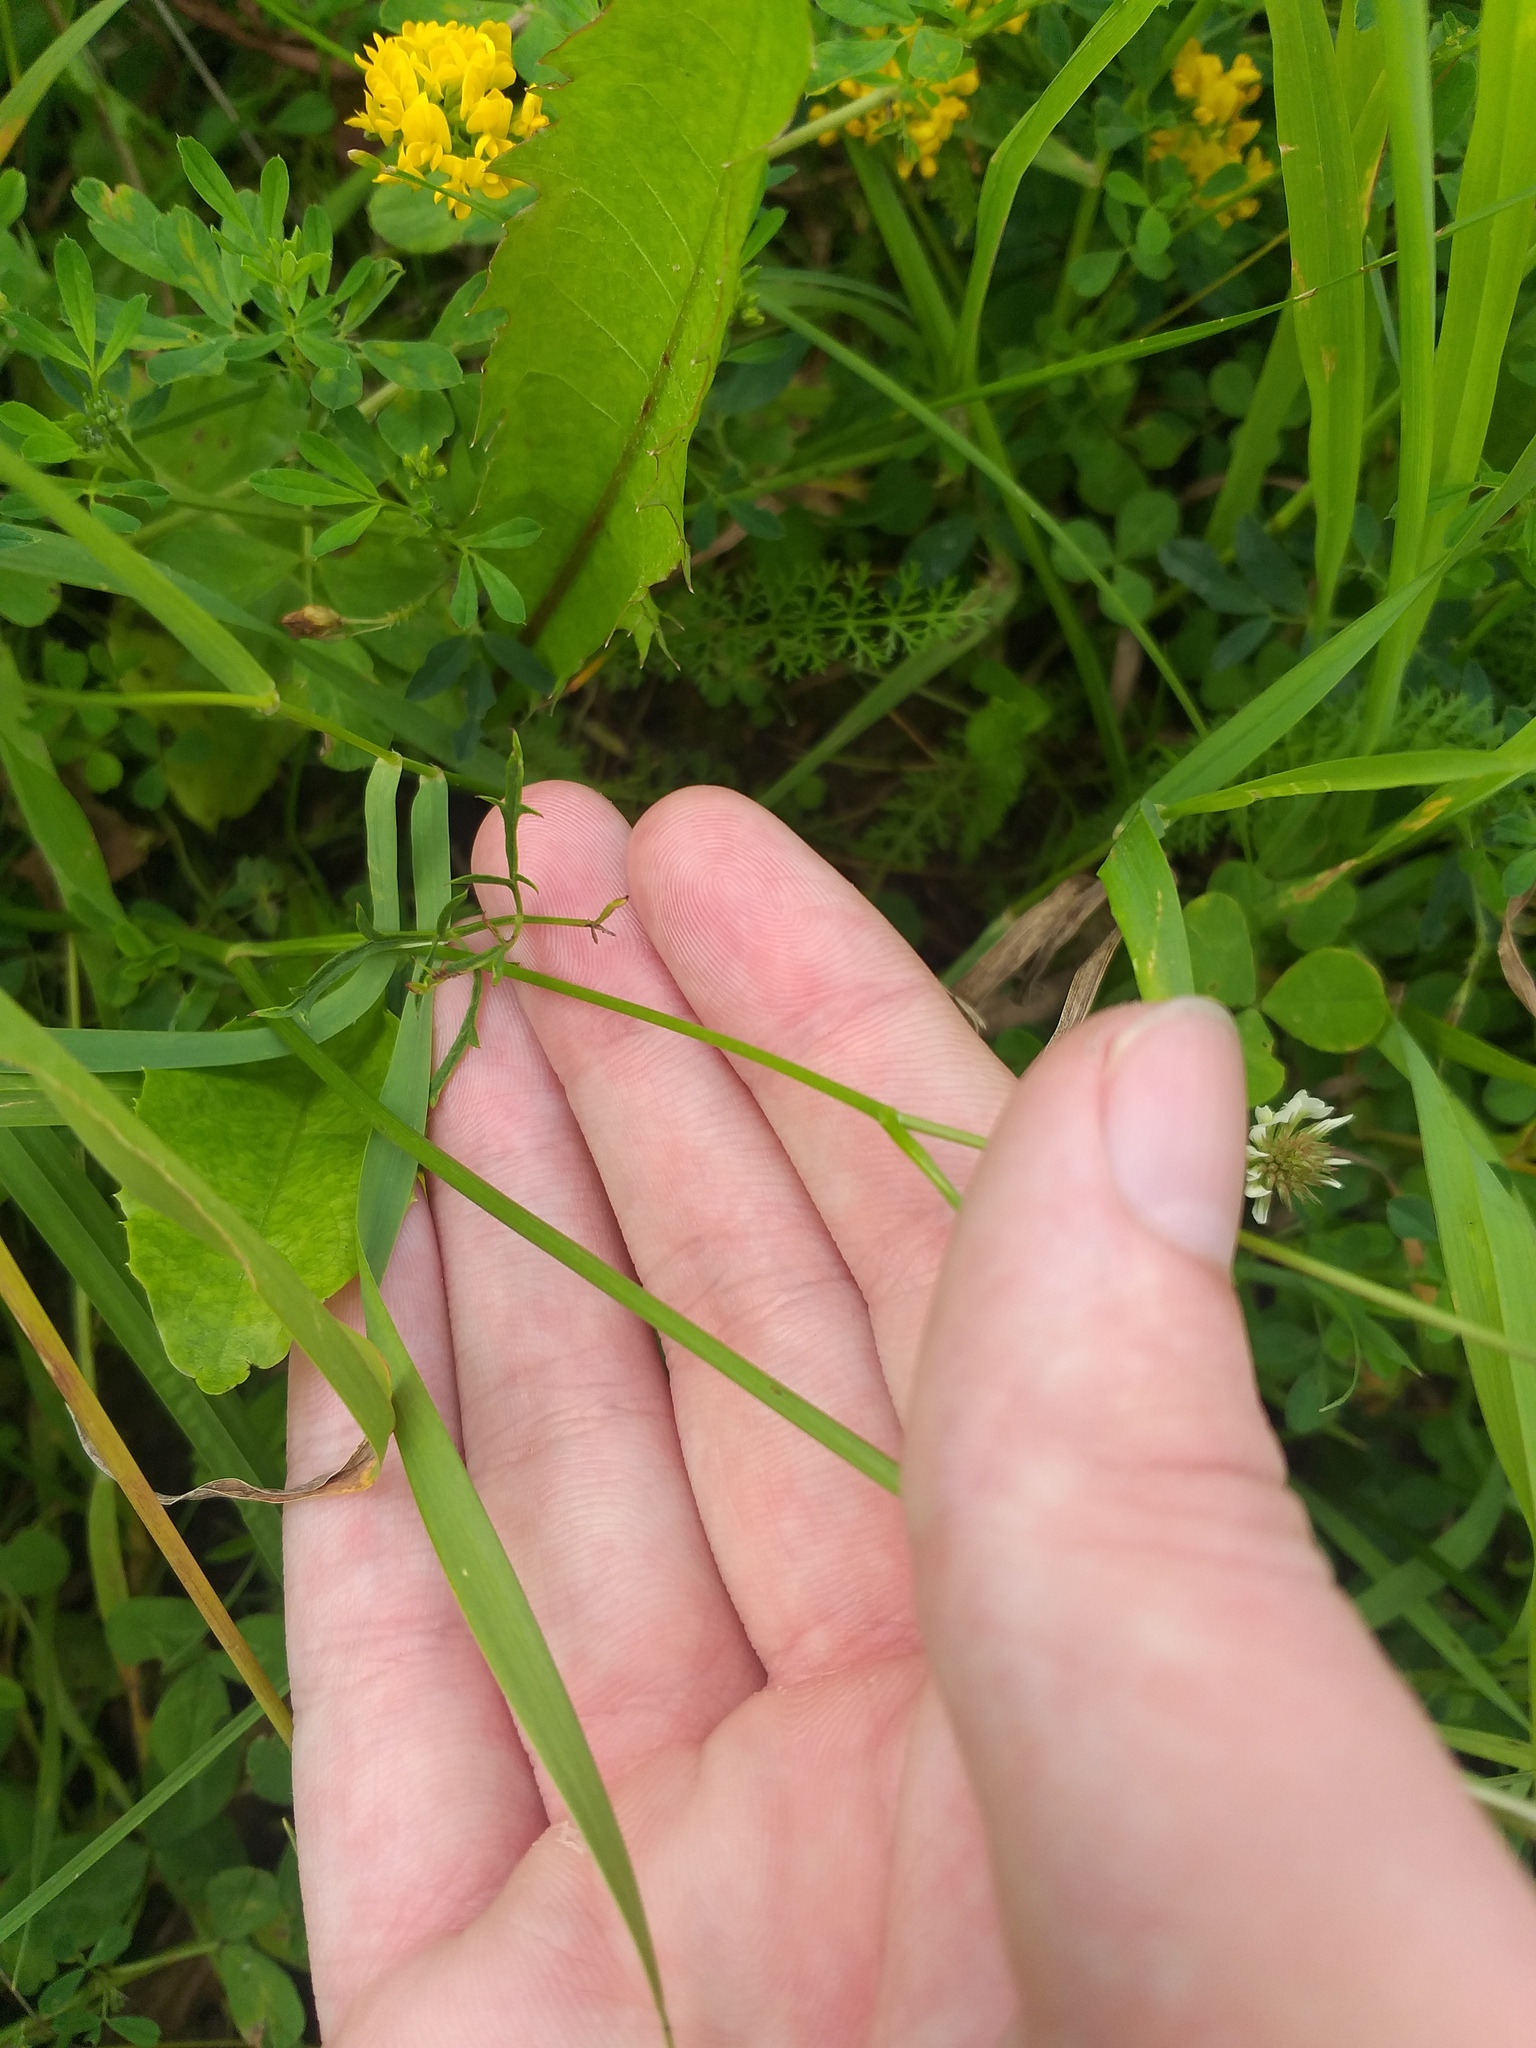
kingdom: Plantae
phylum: Tracheophyta
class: Magnoliopsida
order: Apiales
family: Apiaceae
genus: Pimpinella
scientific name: Pimpinella saxifraga
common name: Burnet-saxifrage
